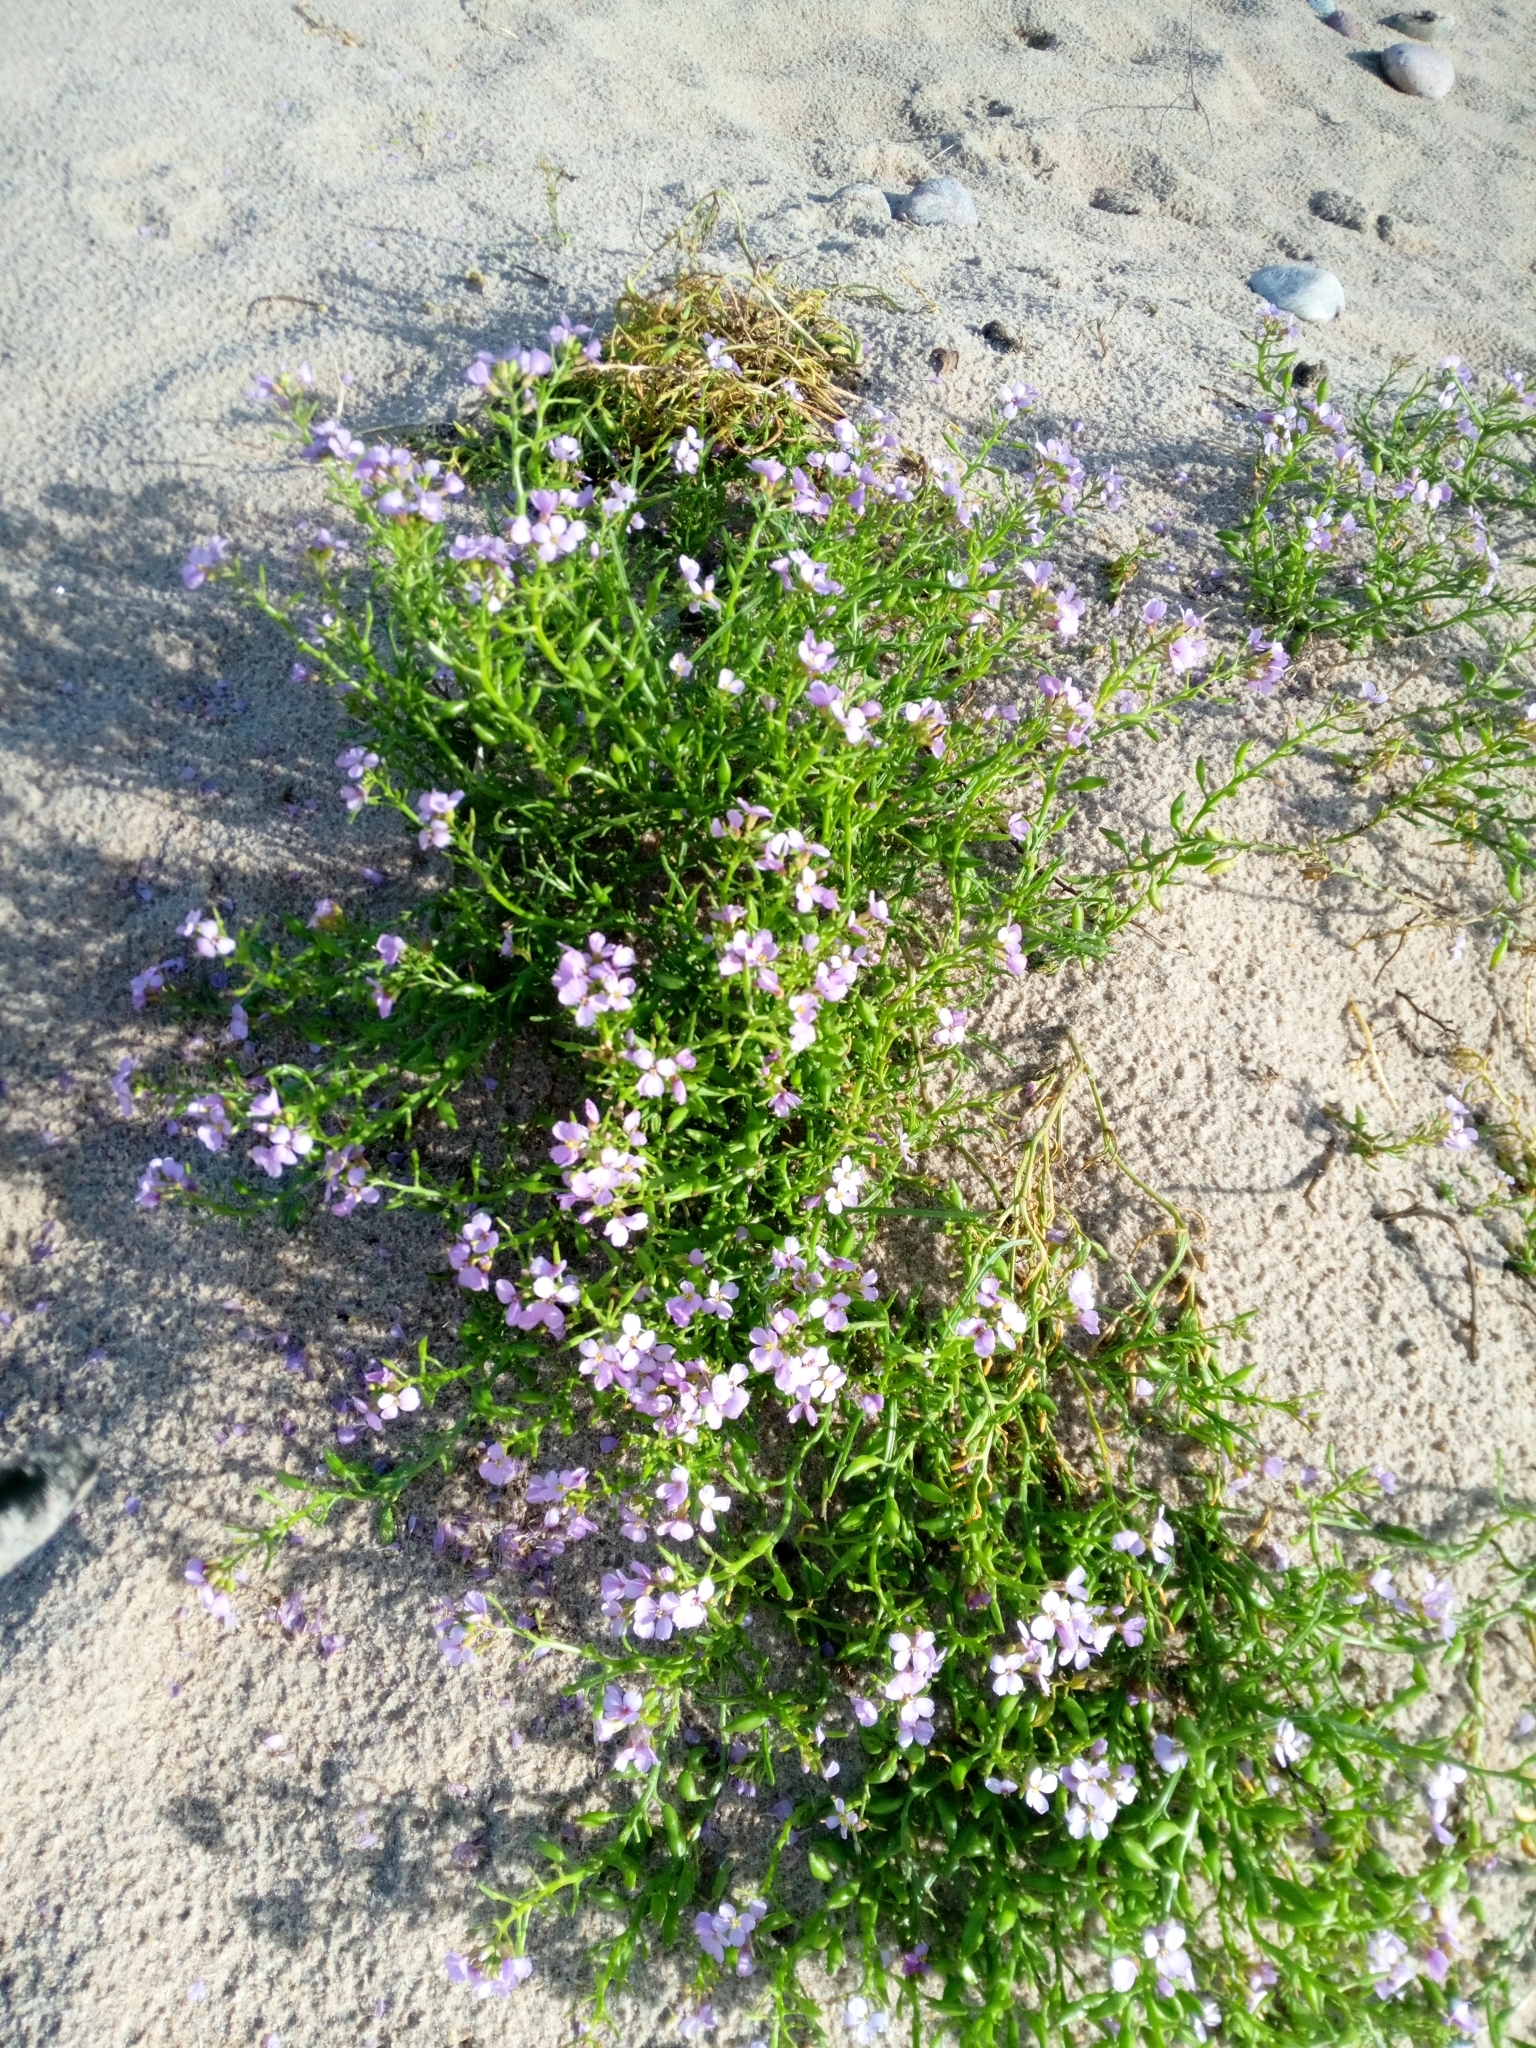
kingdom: Plantae
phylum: Tracheophyta
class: Magnoliopsida
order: Brassicales
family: Brassicaceae
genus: Cakile
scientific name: Cakile maritima
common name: Sea rocket
